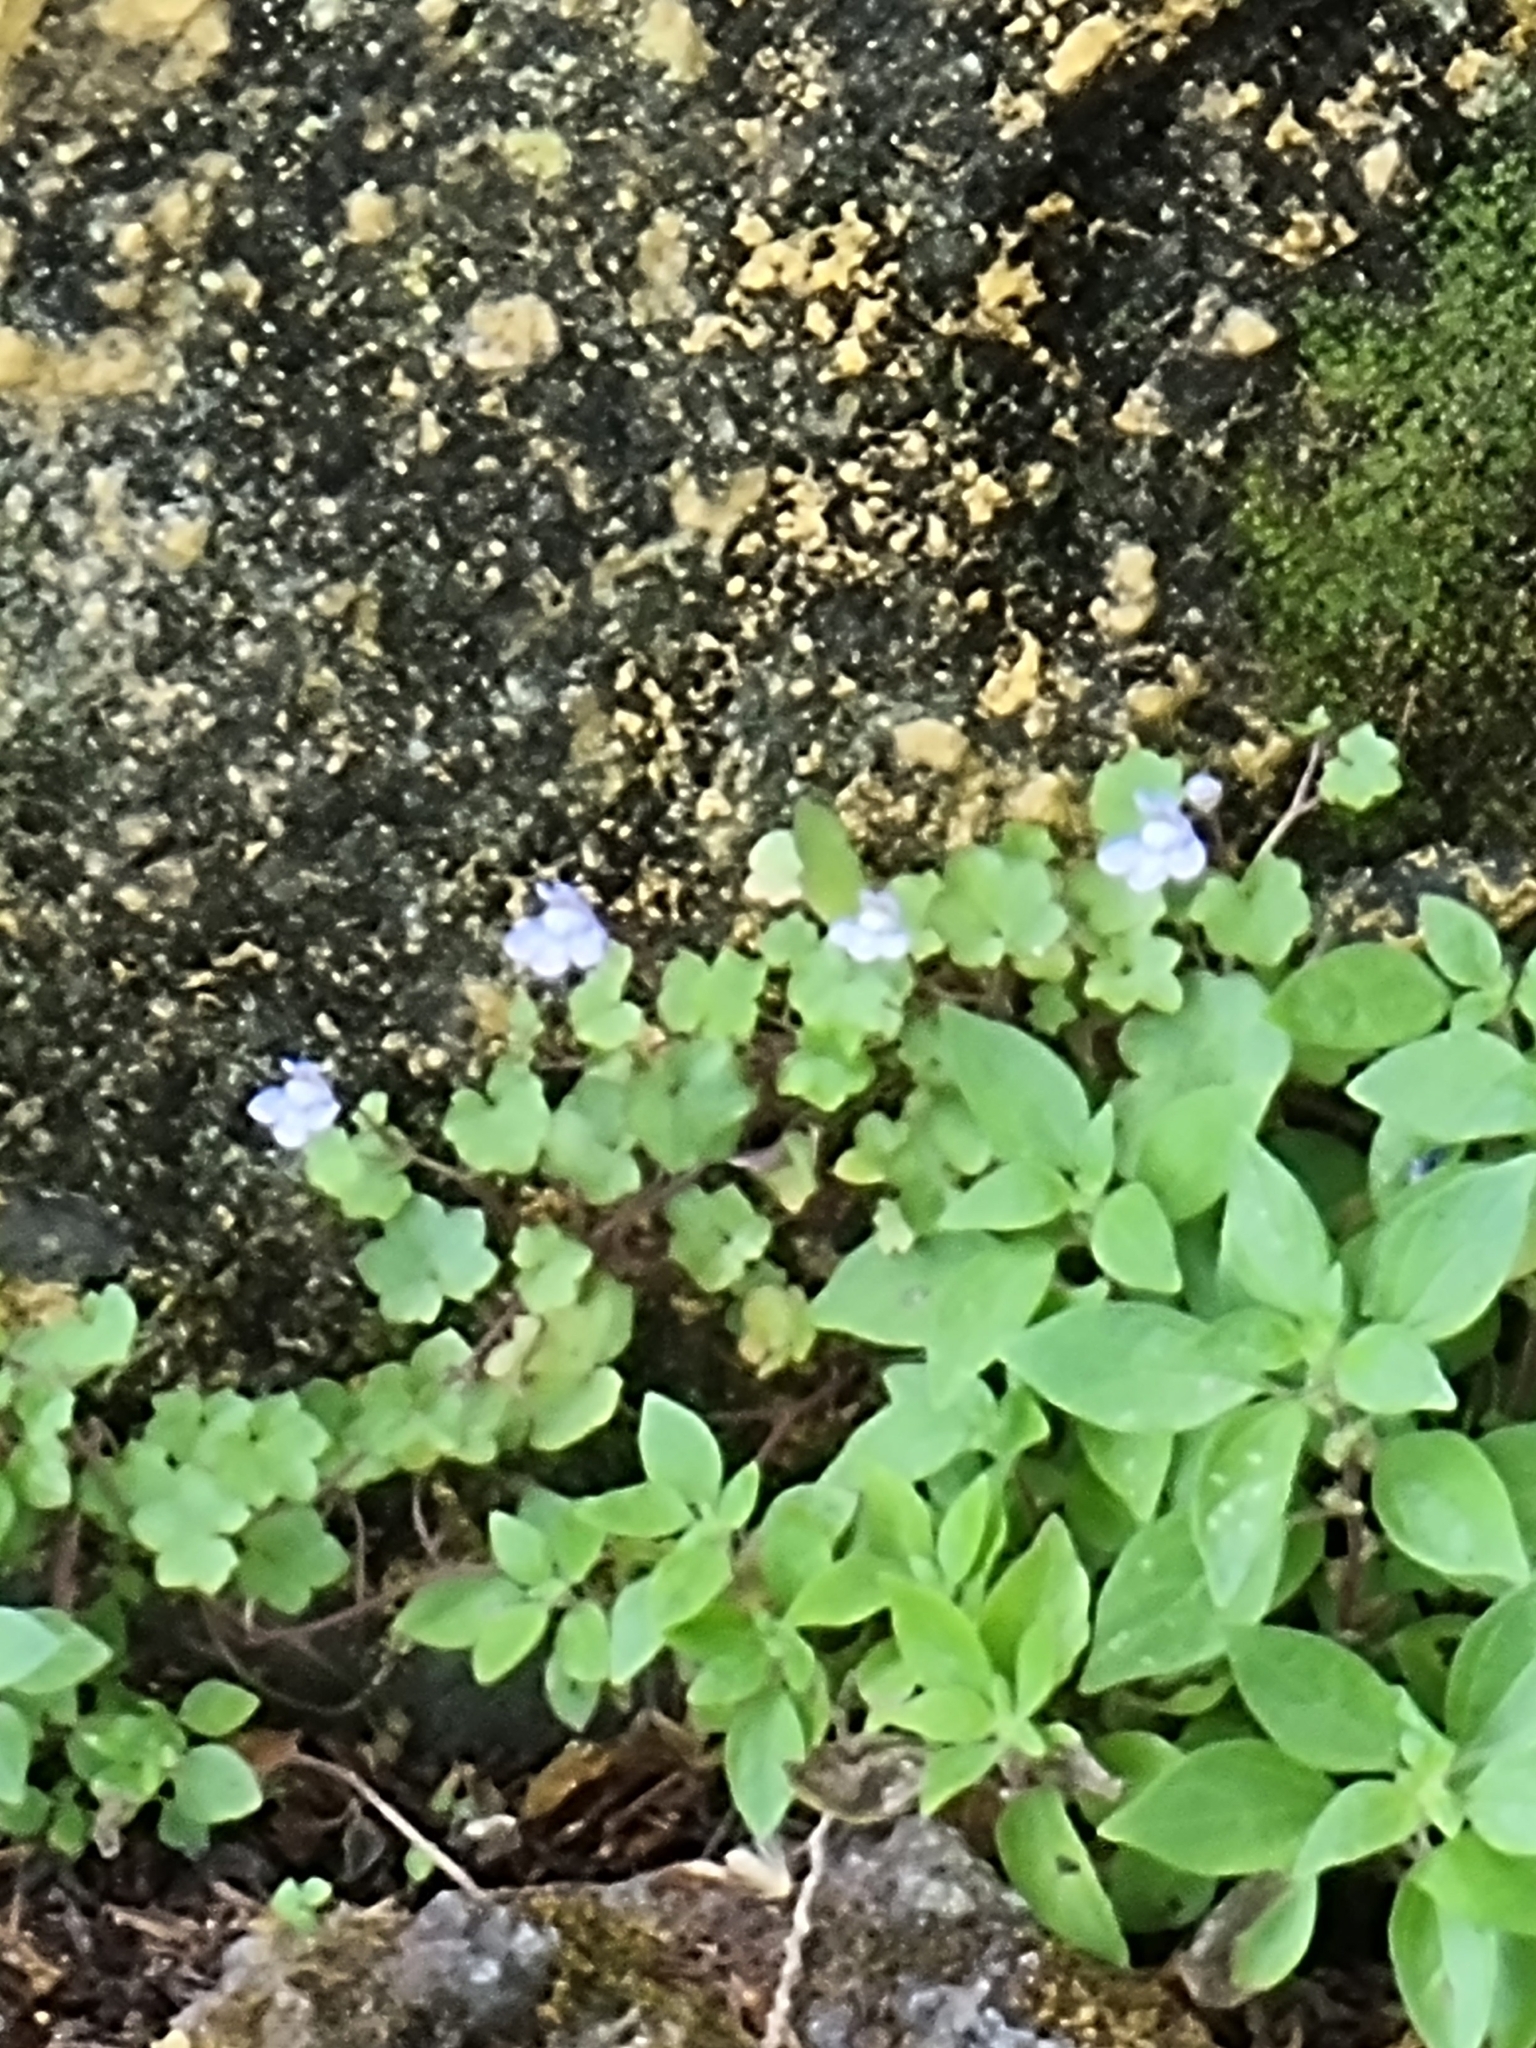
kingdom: Plantae
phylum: Tracheophyta
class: Magnoliopsida
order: Lamiales
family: Plantaginaceae
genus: Cymbalaria
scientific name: Cymbalaria muralis
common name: Ivy-leaved toadflax
